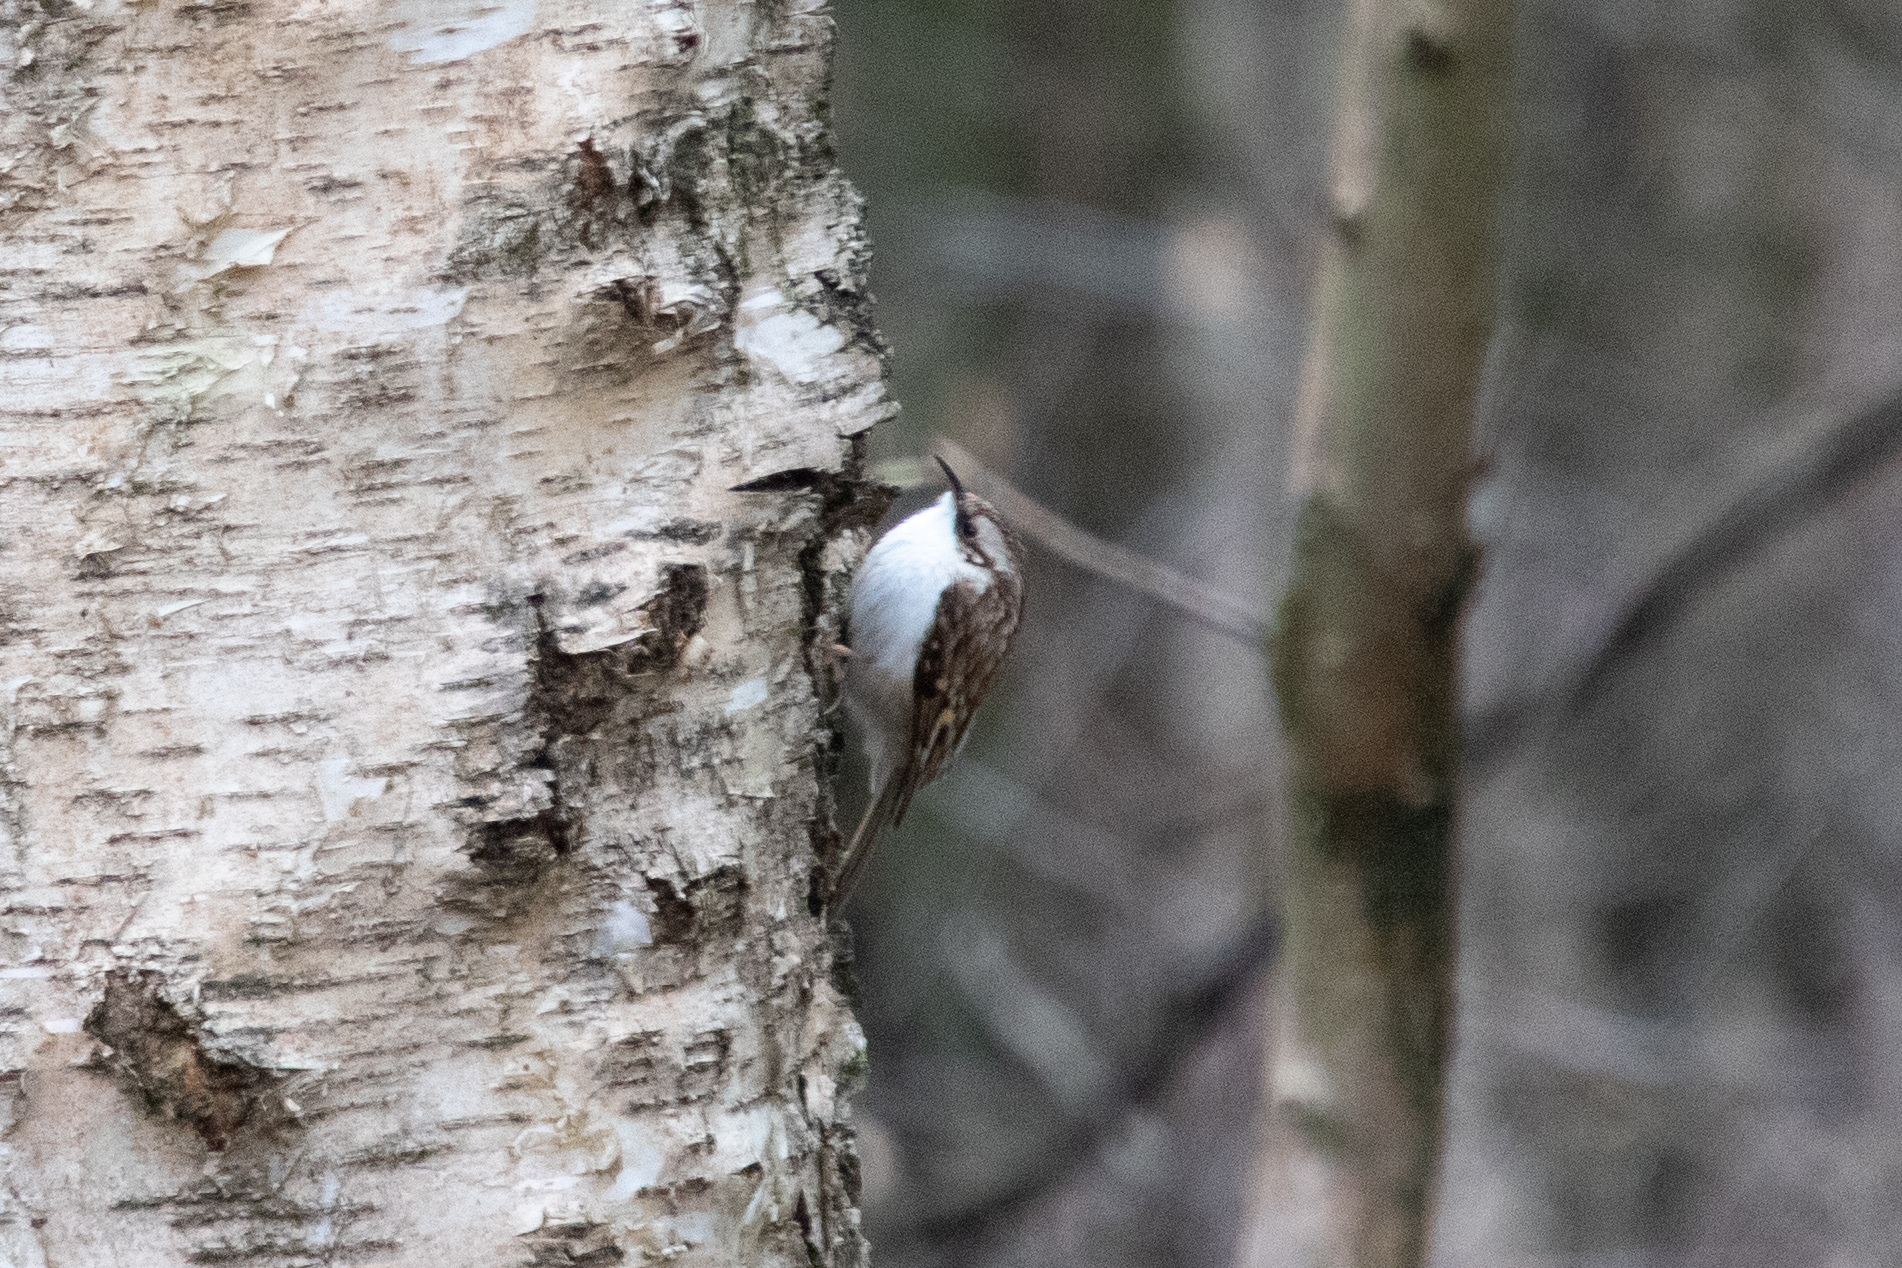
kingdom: Animalia
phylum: Chordata
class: Aves
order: Passeriformes
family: Certhiidae
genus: Certhia
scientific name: Certhia familiaris
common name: Eurasian treecreeper
